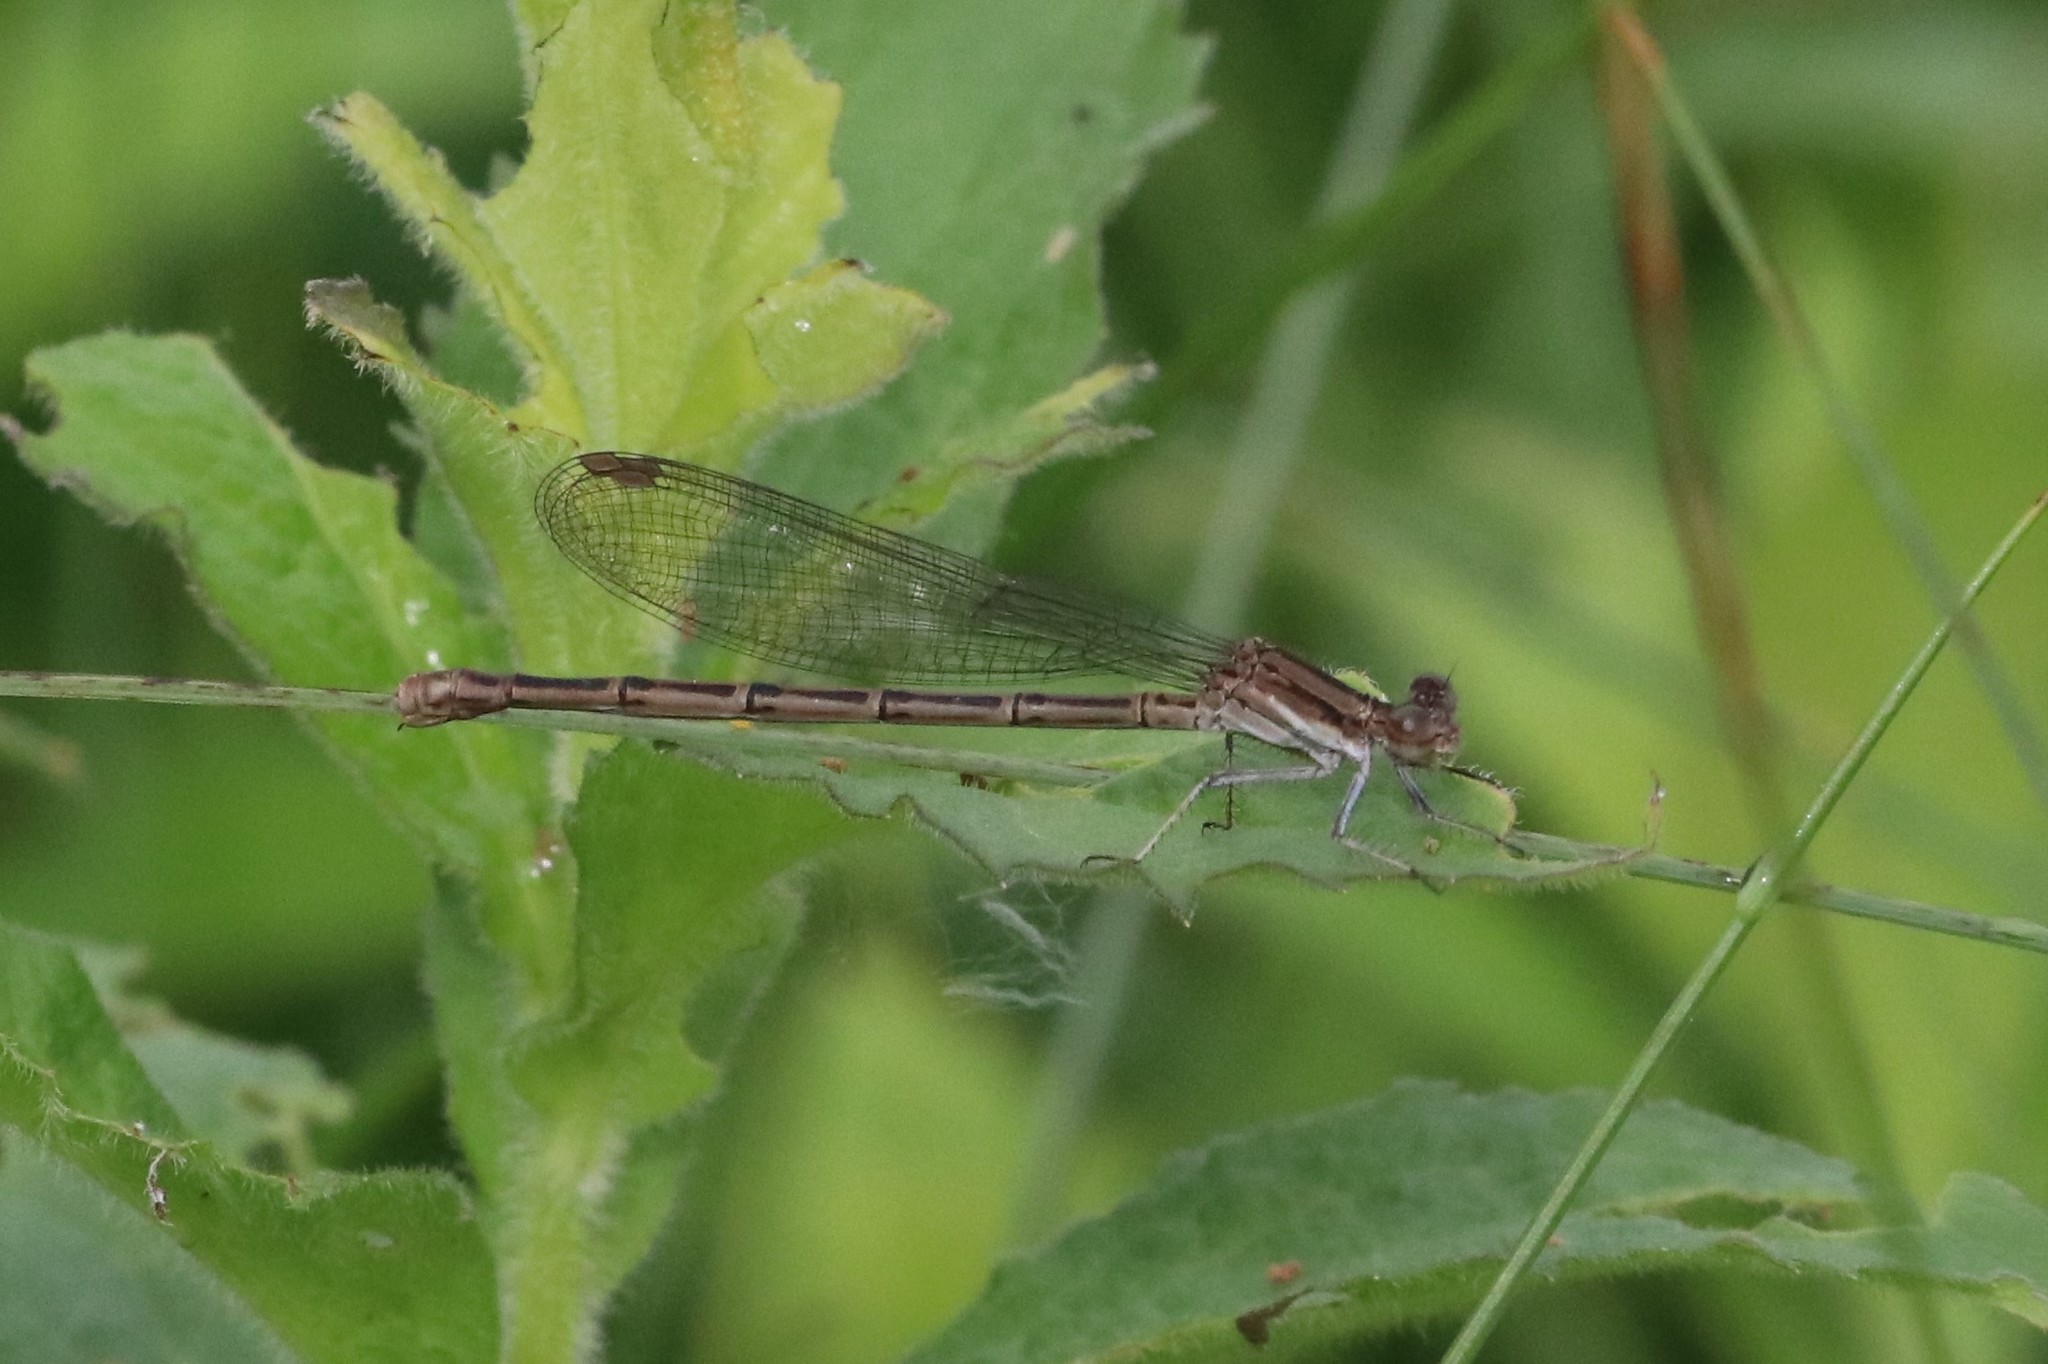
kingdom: Animalia
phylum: Arthropoda
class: Insecta
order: Odonata
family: Coenagrionidae
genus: Argia
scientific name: Argia fumipennis
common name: Variable dancer
